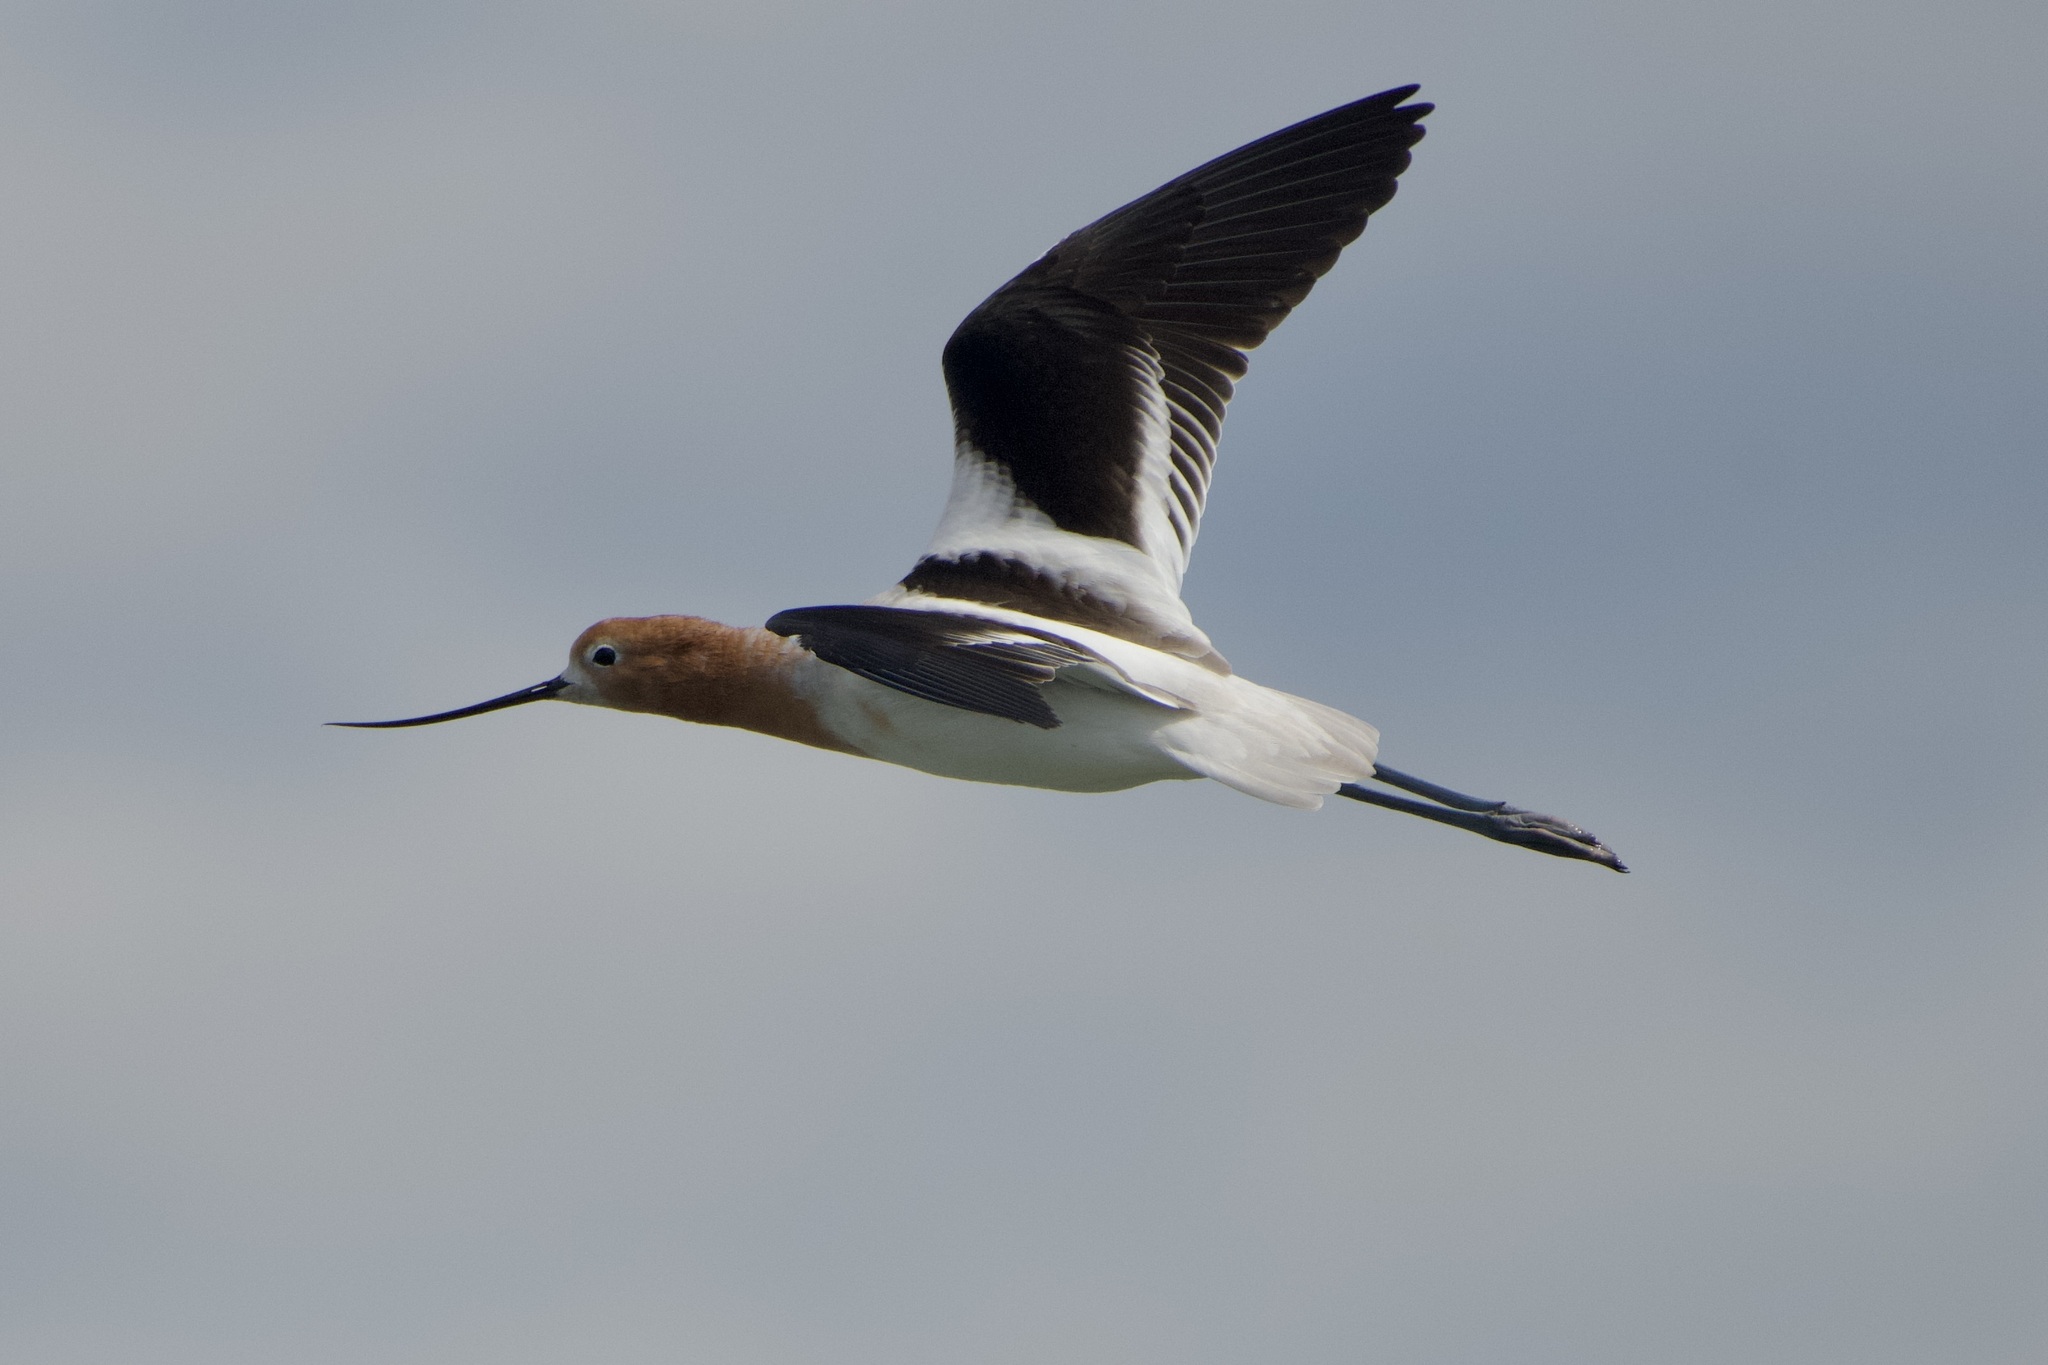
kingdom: Animalia
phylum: Chordata
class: Aves
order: Charadriiformes
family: Recurvirostridae
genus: Recurvirostra
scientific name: Recurvirostra americana
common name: American avocet
